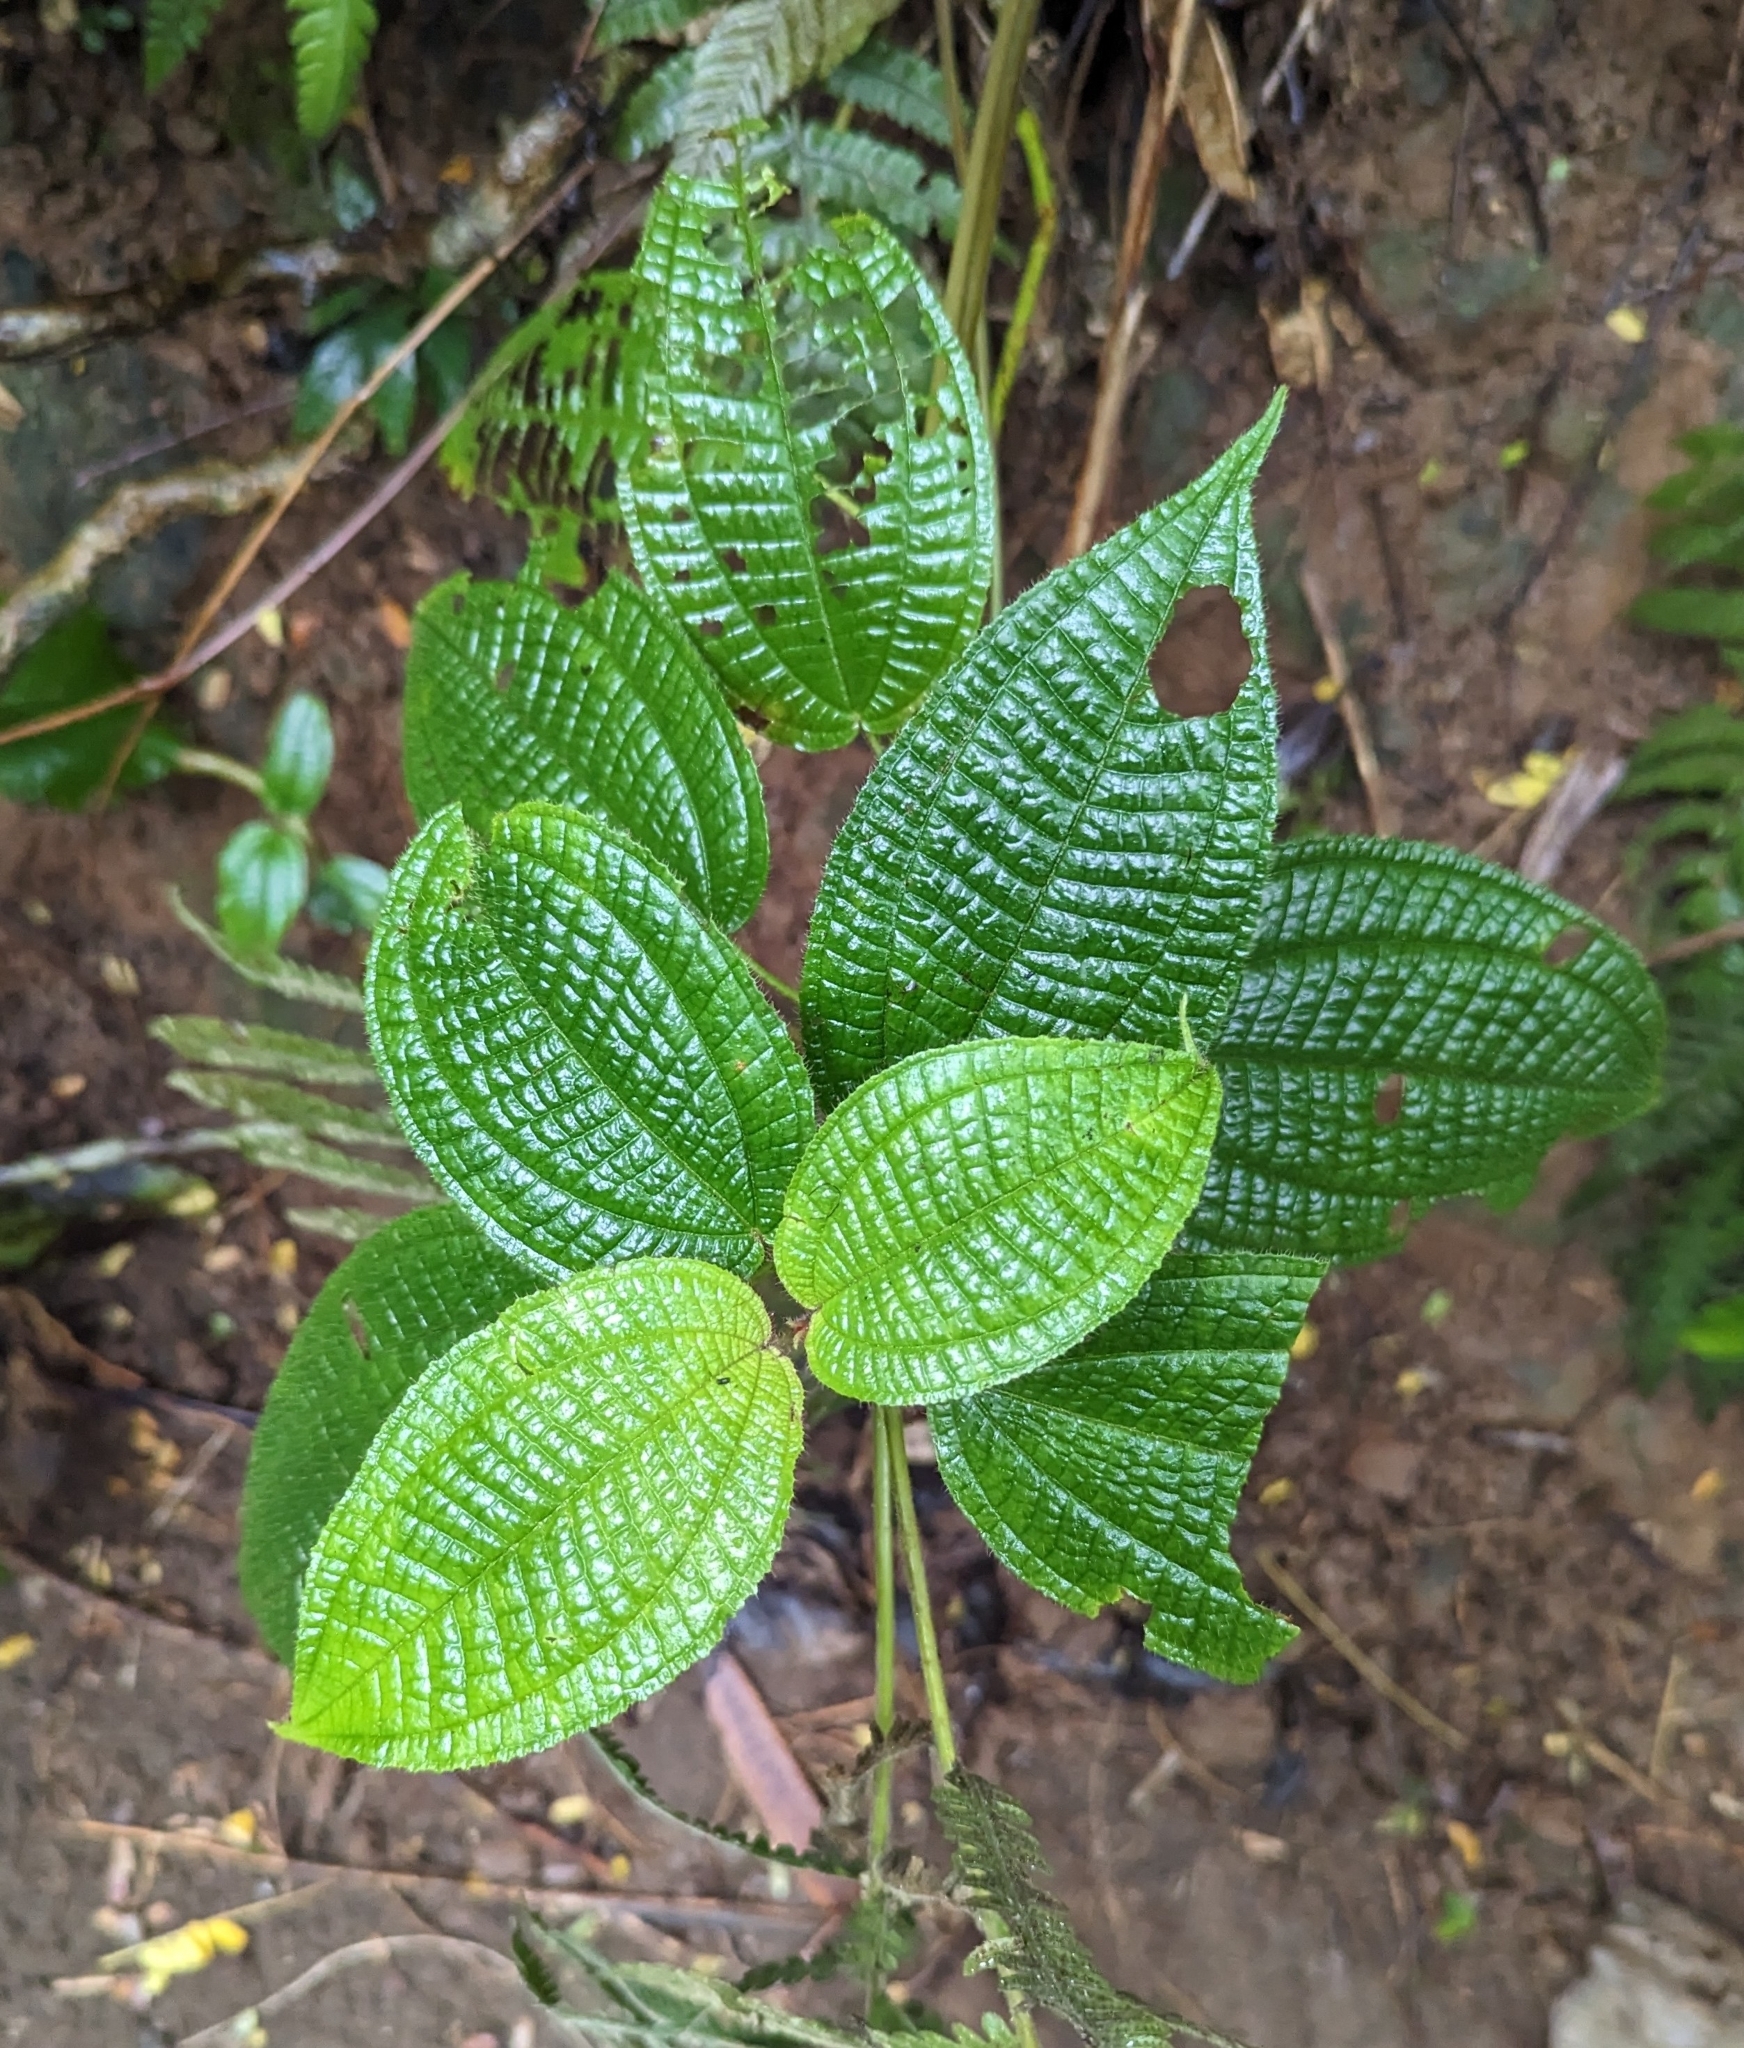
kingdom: Plantae
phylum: Tracheophyta
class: Magnoliopsida
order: Myrtales
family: Melastomataceae
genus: Miconia
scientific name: Miconia crenata
